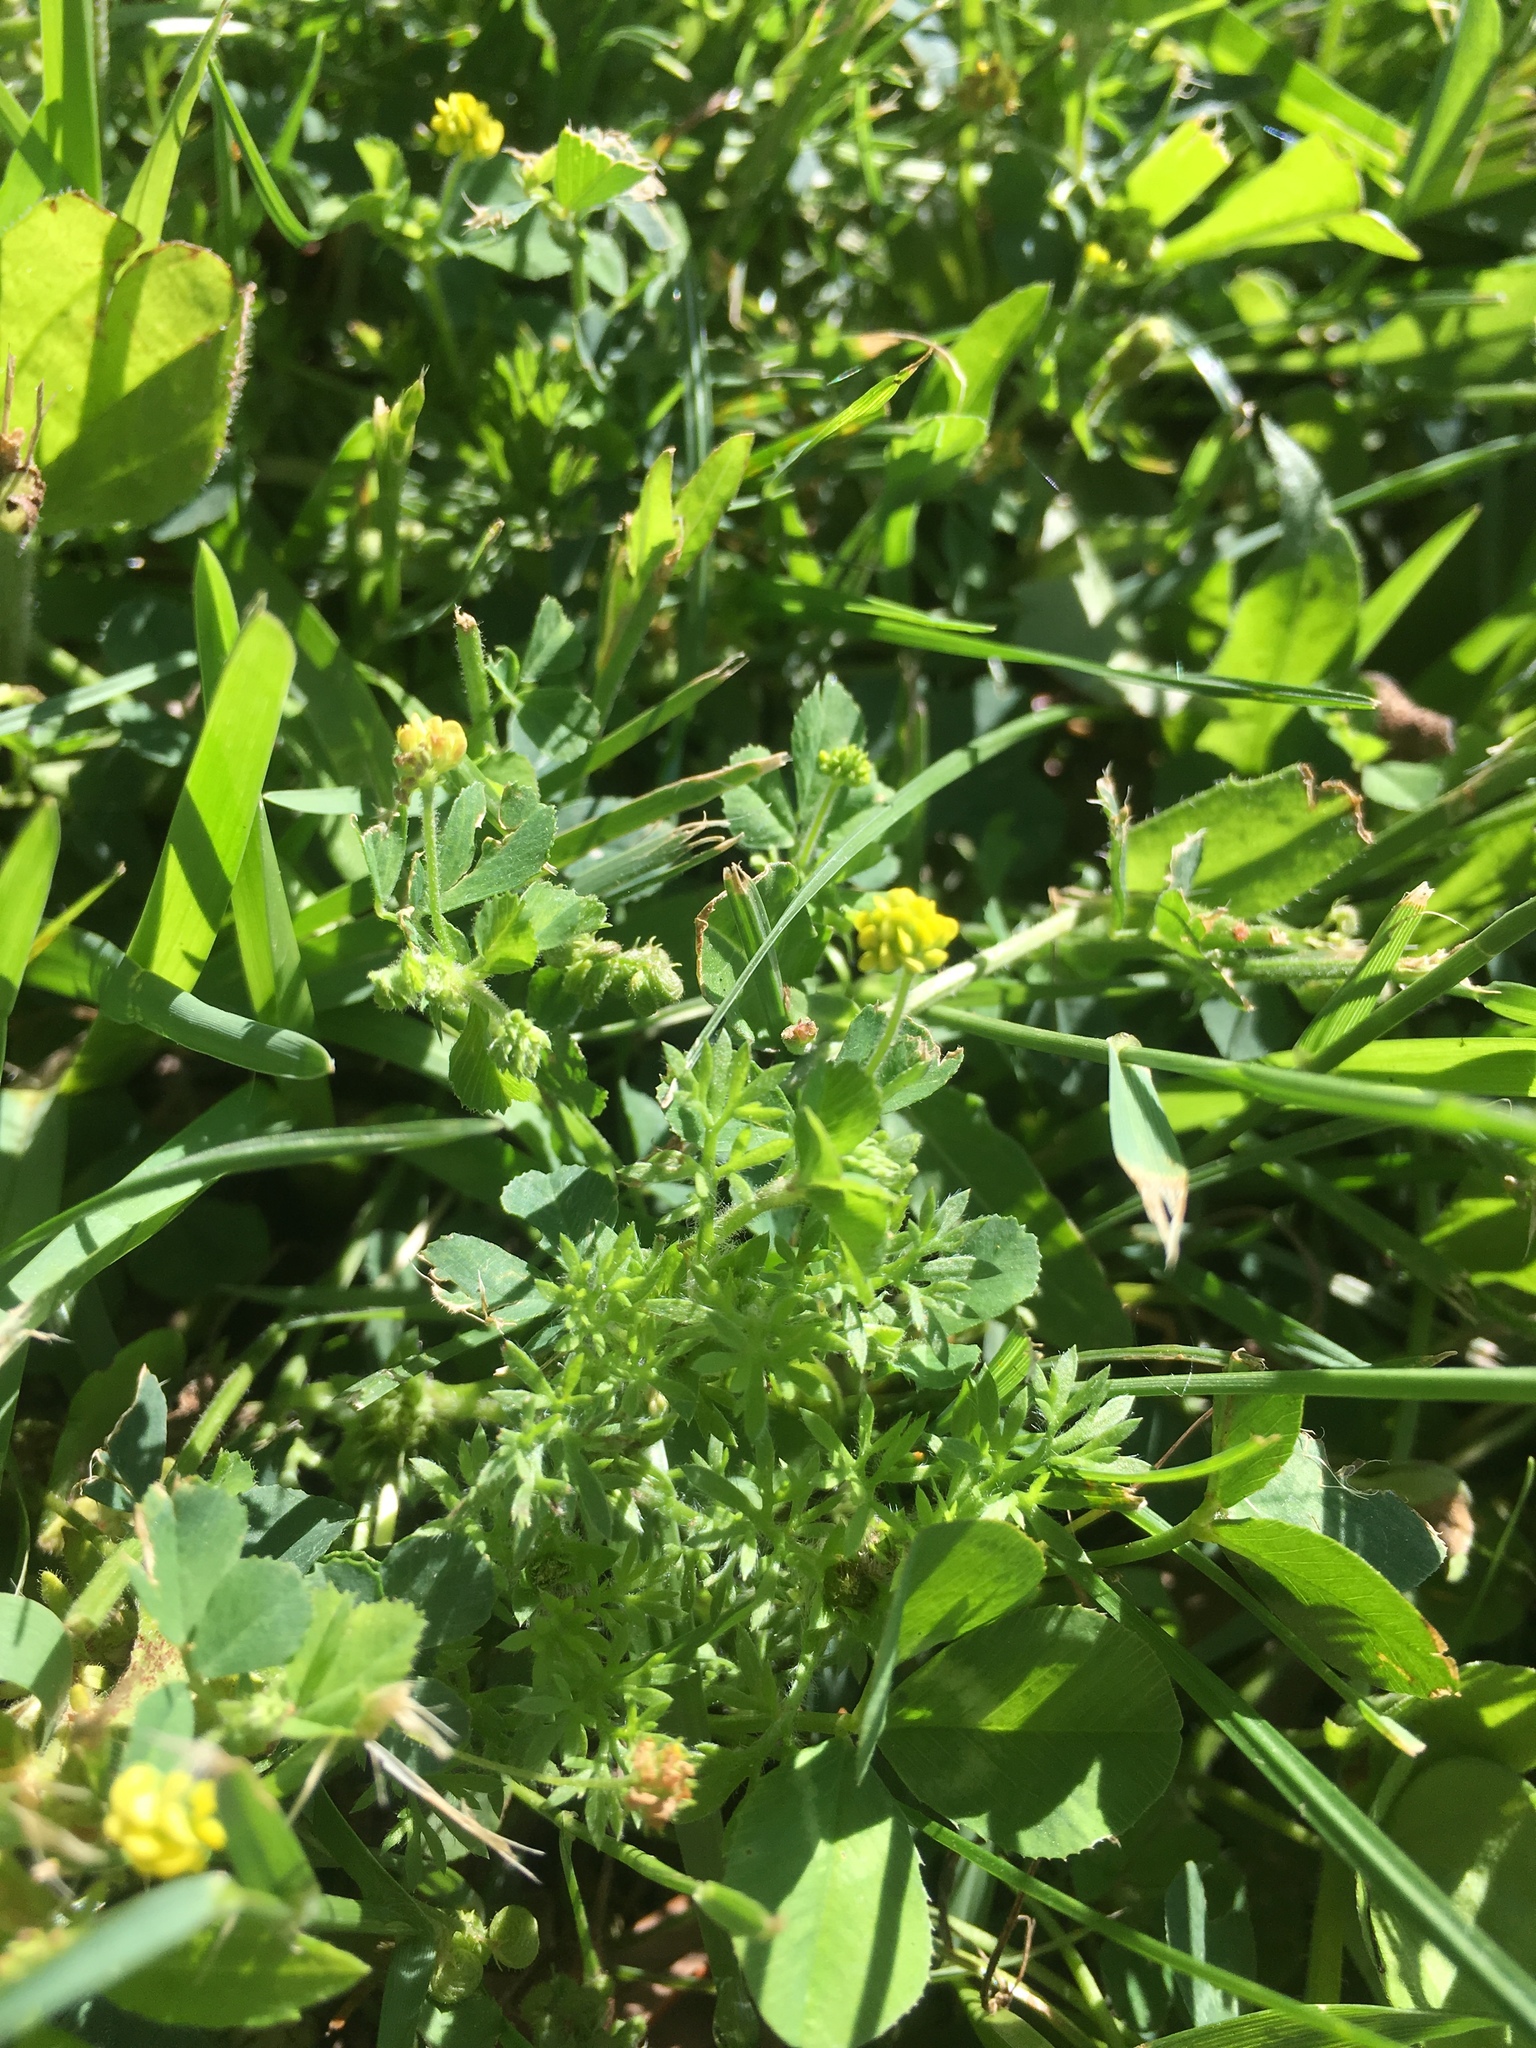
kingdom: Plantae
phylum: Tracheophyta
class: Magnoliopsida
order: Fabales
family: Fabaceae
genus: Medicago
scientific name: Medicago lupulina
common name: Black medick
